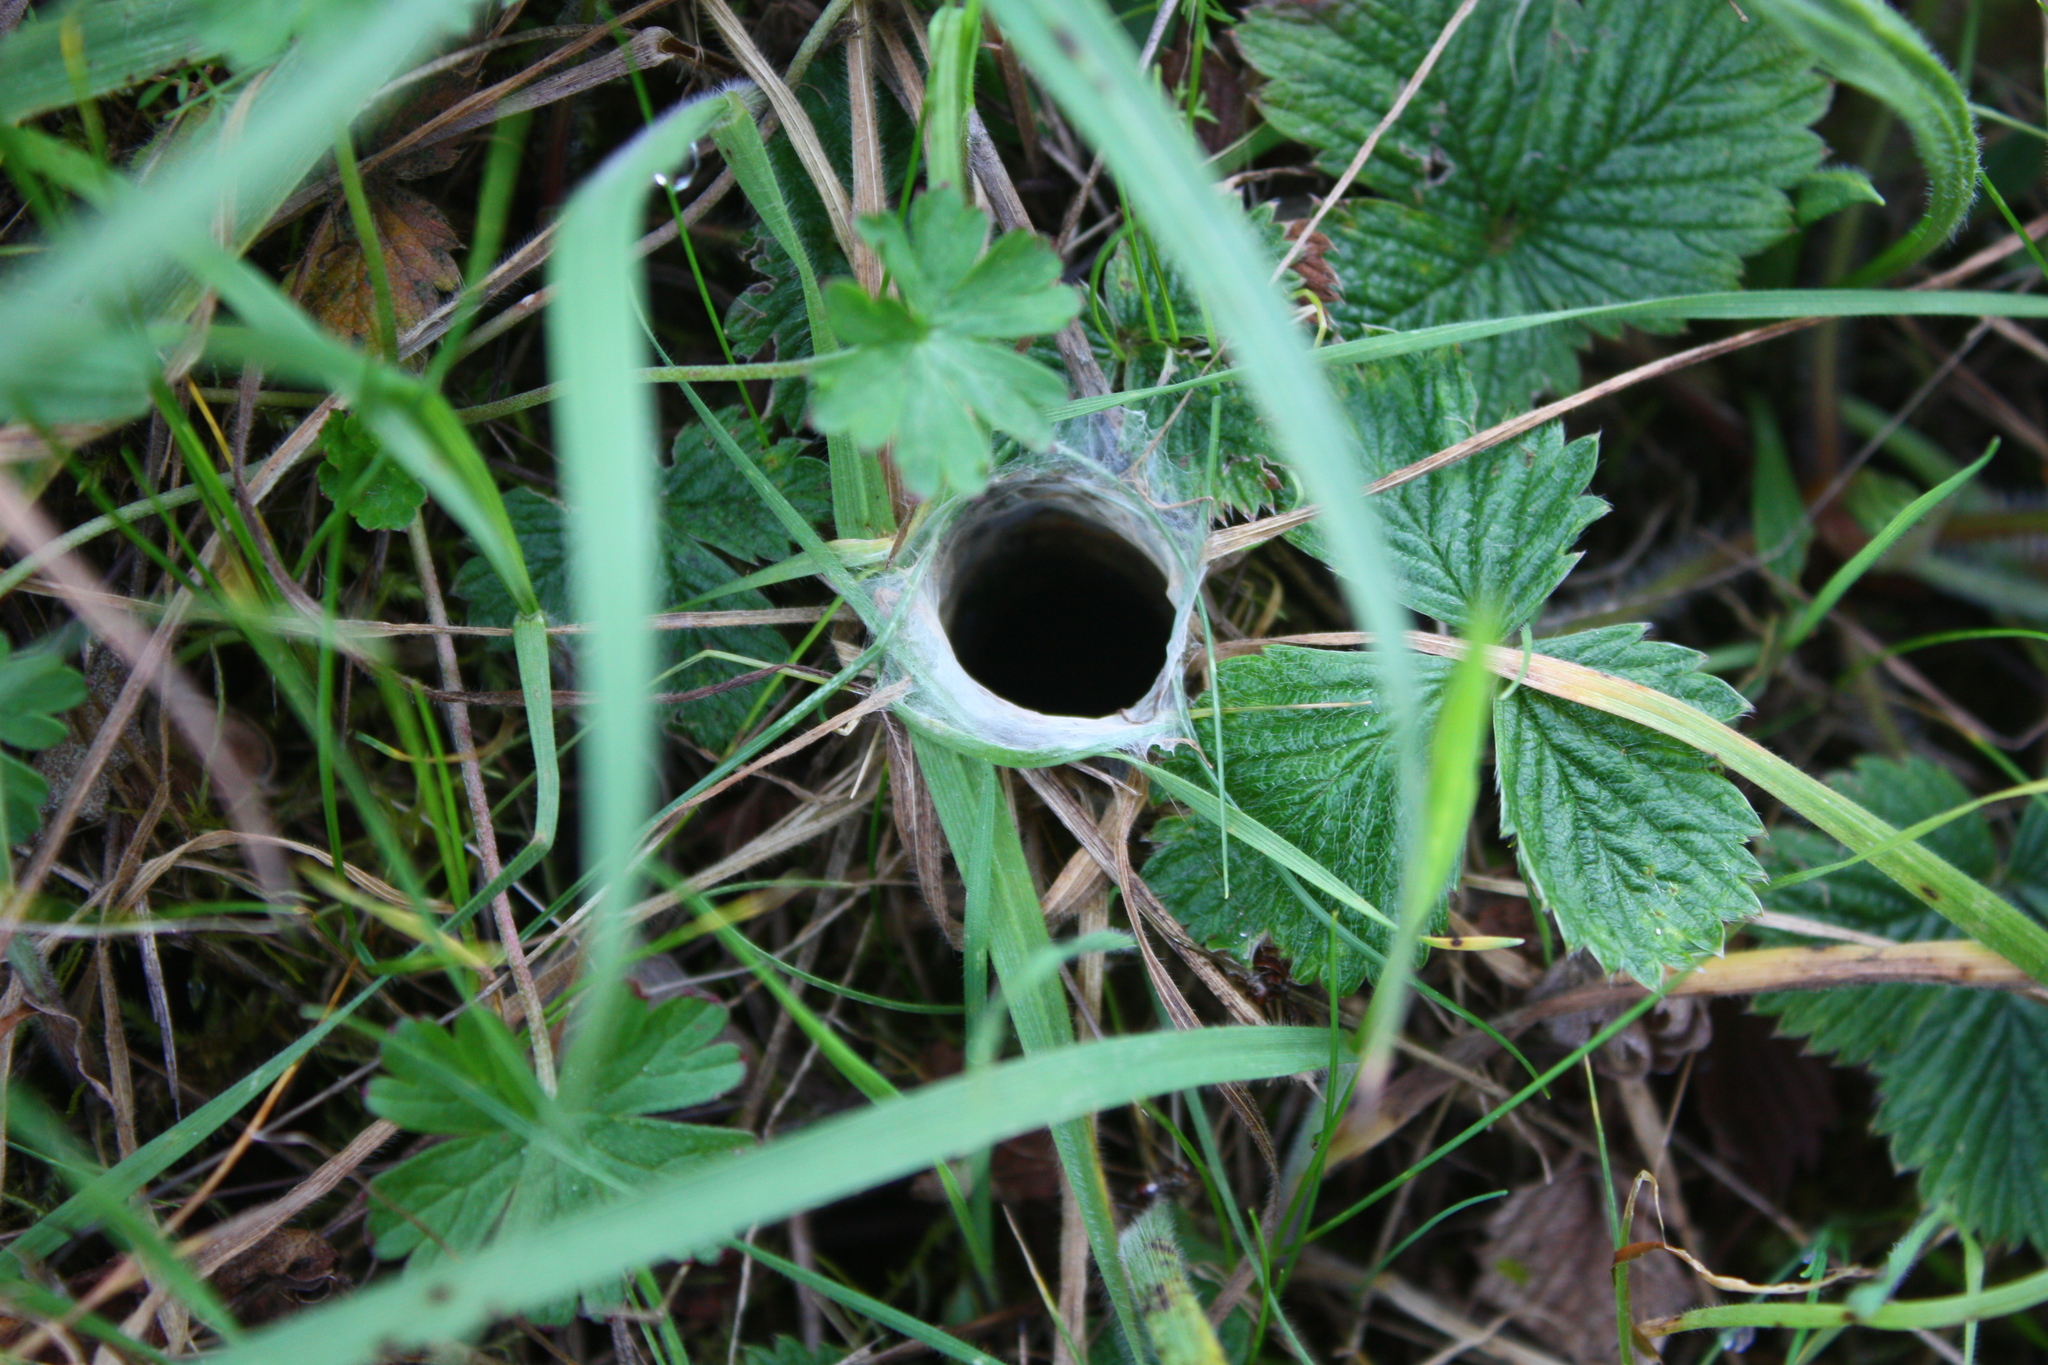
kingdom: Animalia
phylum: Arthropoda
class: Arachnida
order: Araneae
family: Antrodiaetidae
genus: Atypoides
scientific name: Atypoides riversi
